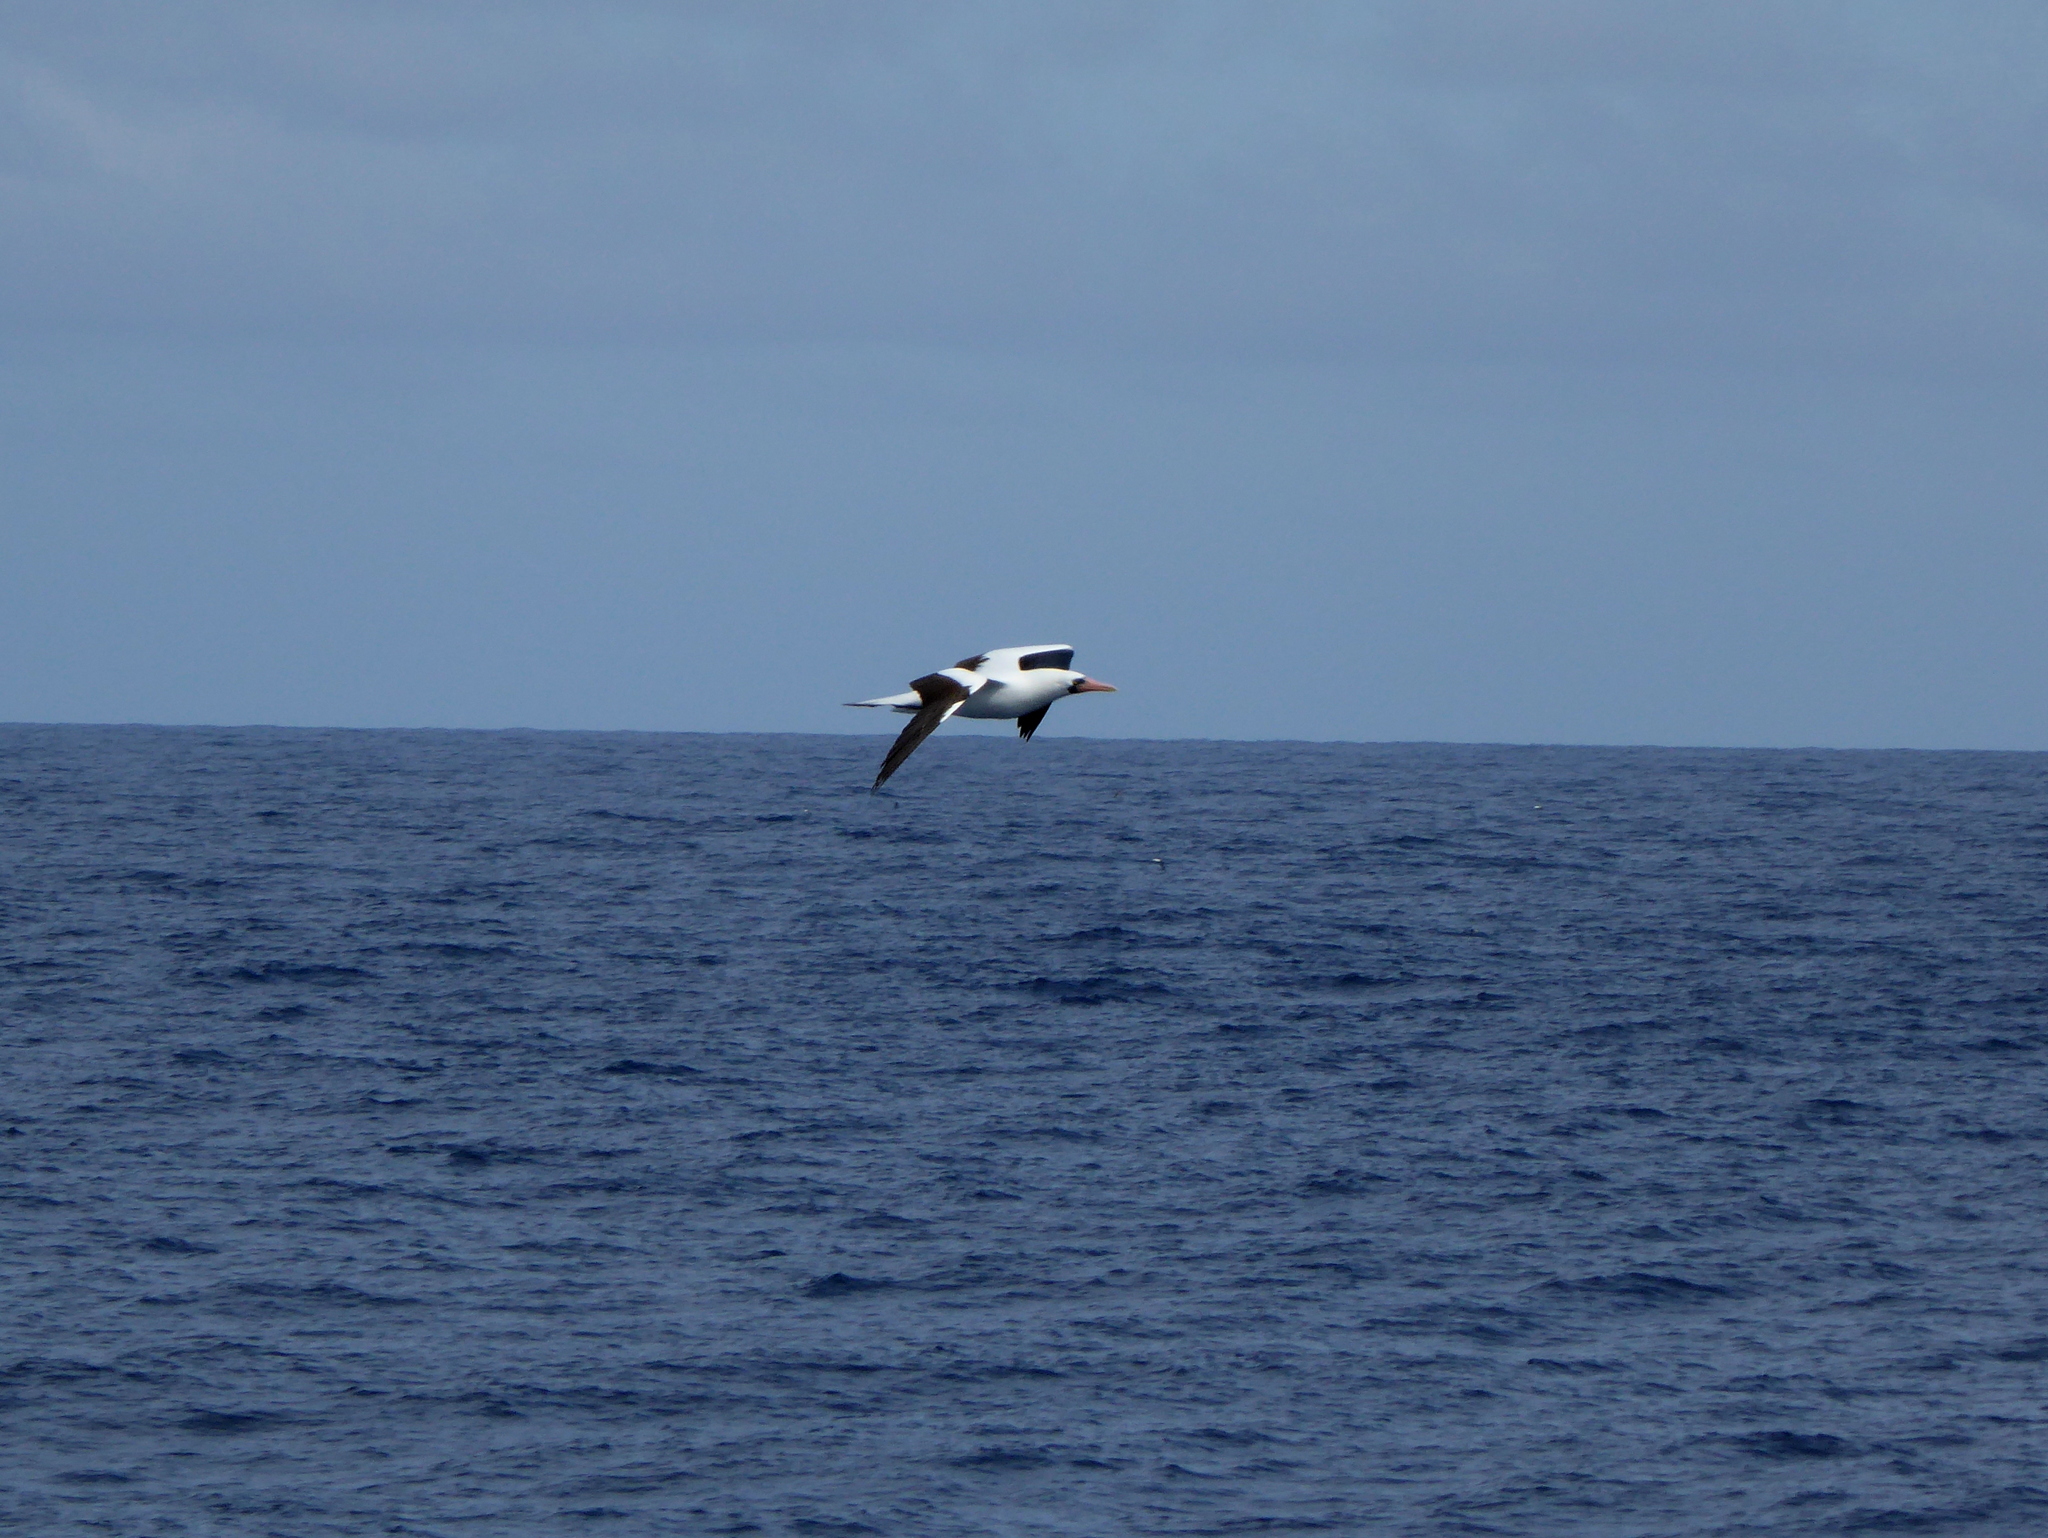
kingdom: Animalia
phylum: Chordata
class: Aves
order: Suliformes
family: Sulidae
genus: Sula
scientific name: Sula granti
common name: Nazca booby
